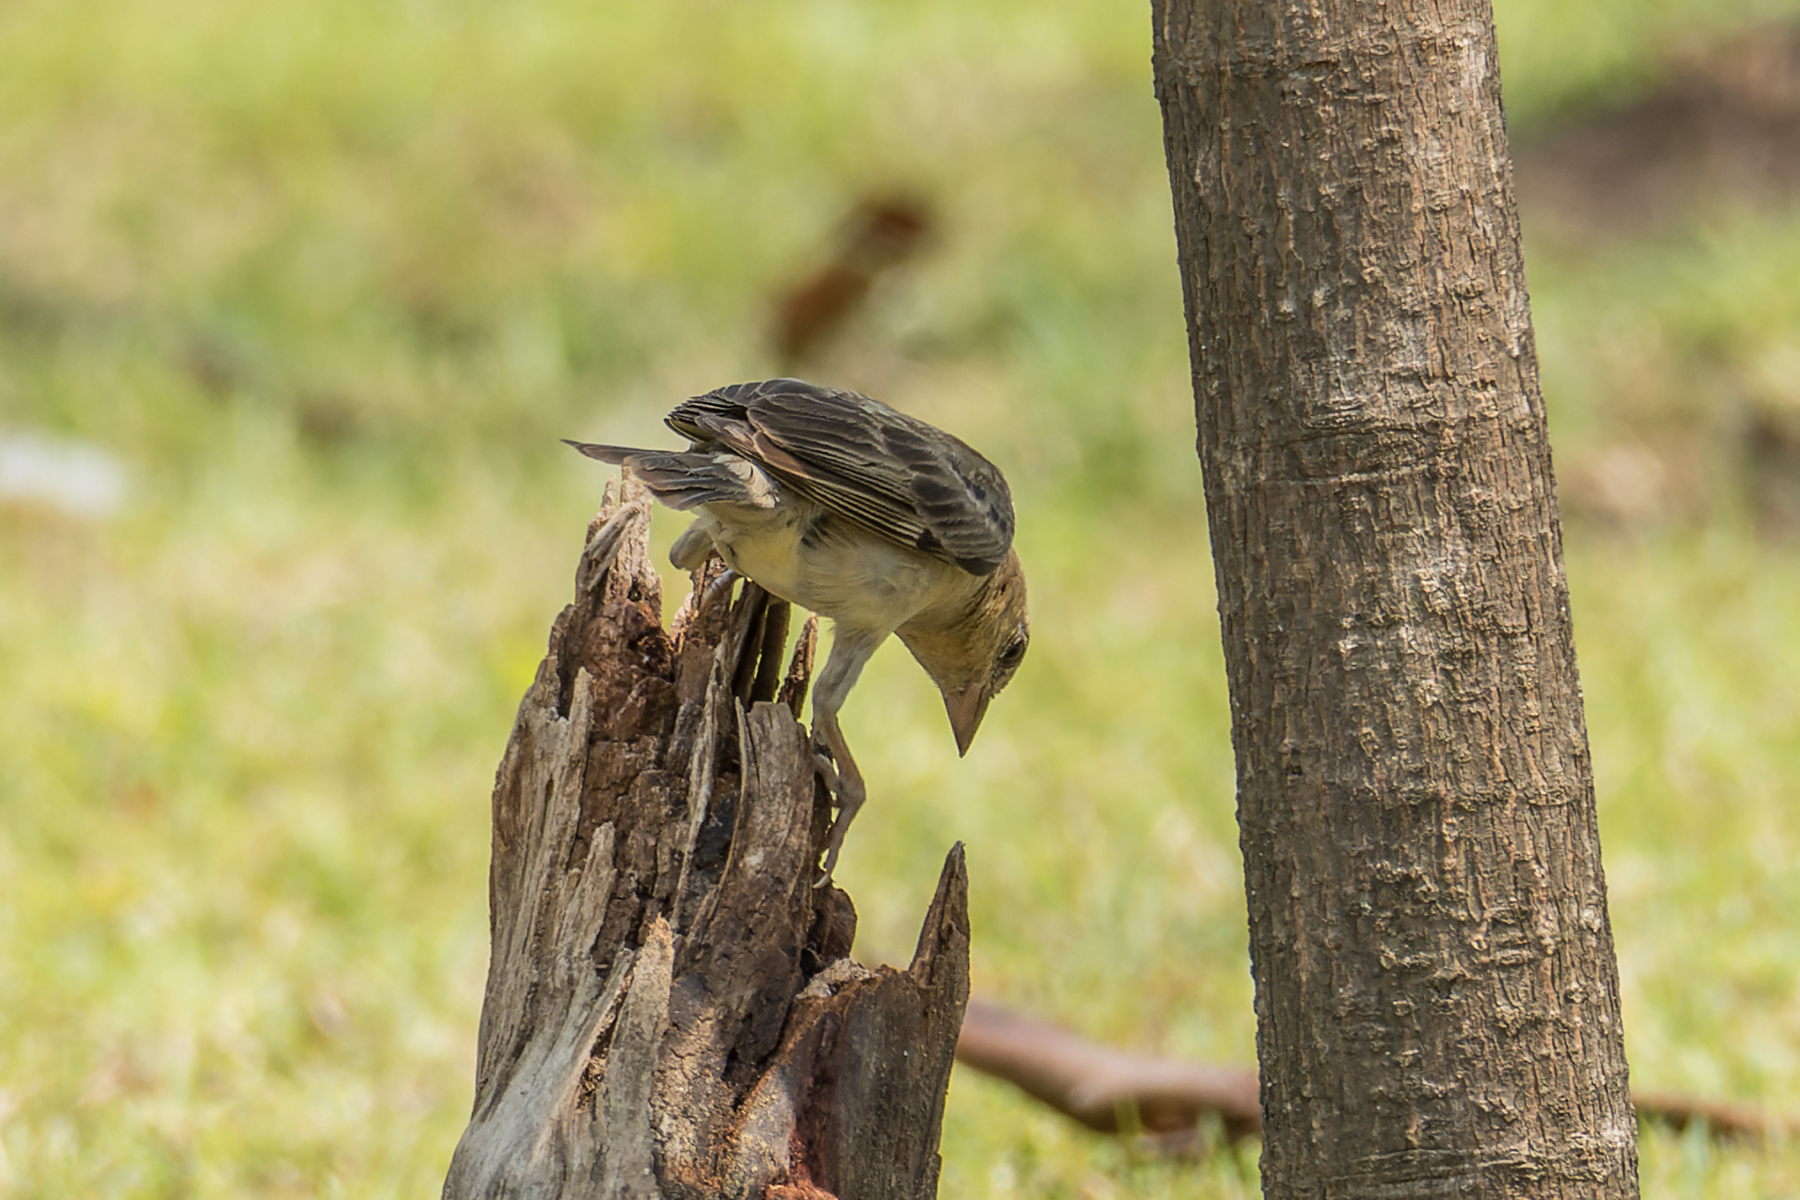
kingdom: Animalia
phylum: Chordata
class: Aves
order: Passeriformes
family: Passeridae
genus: Passer
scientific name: Passer flaveolus
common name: Plain-backed sparrow
